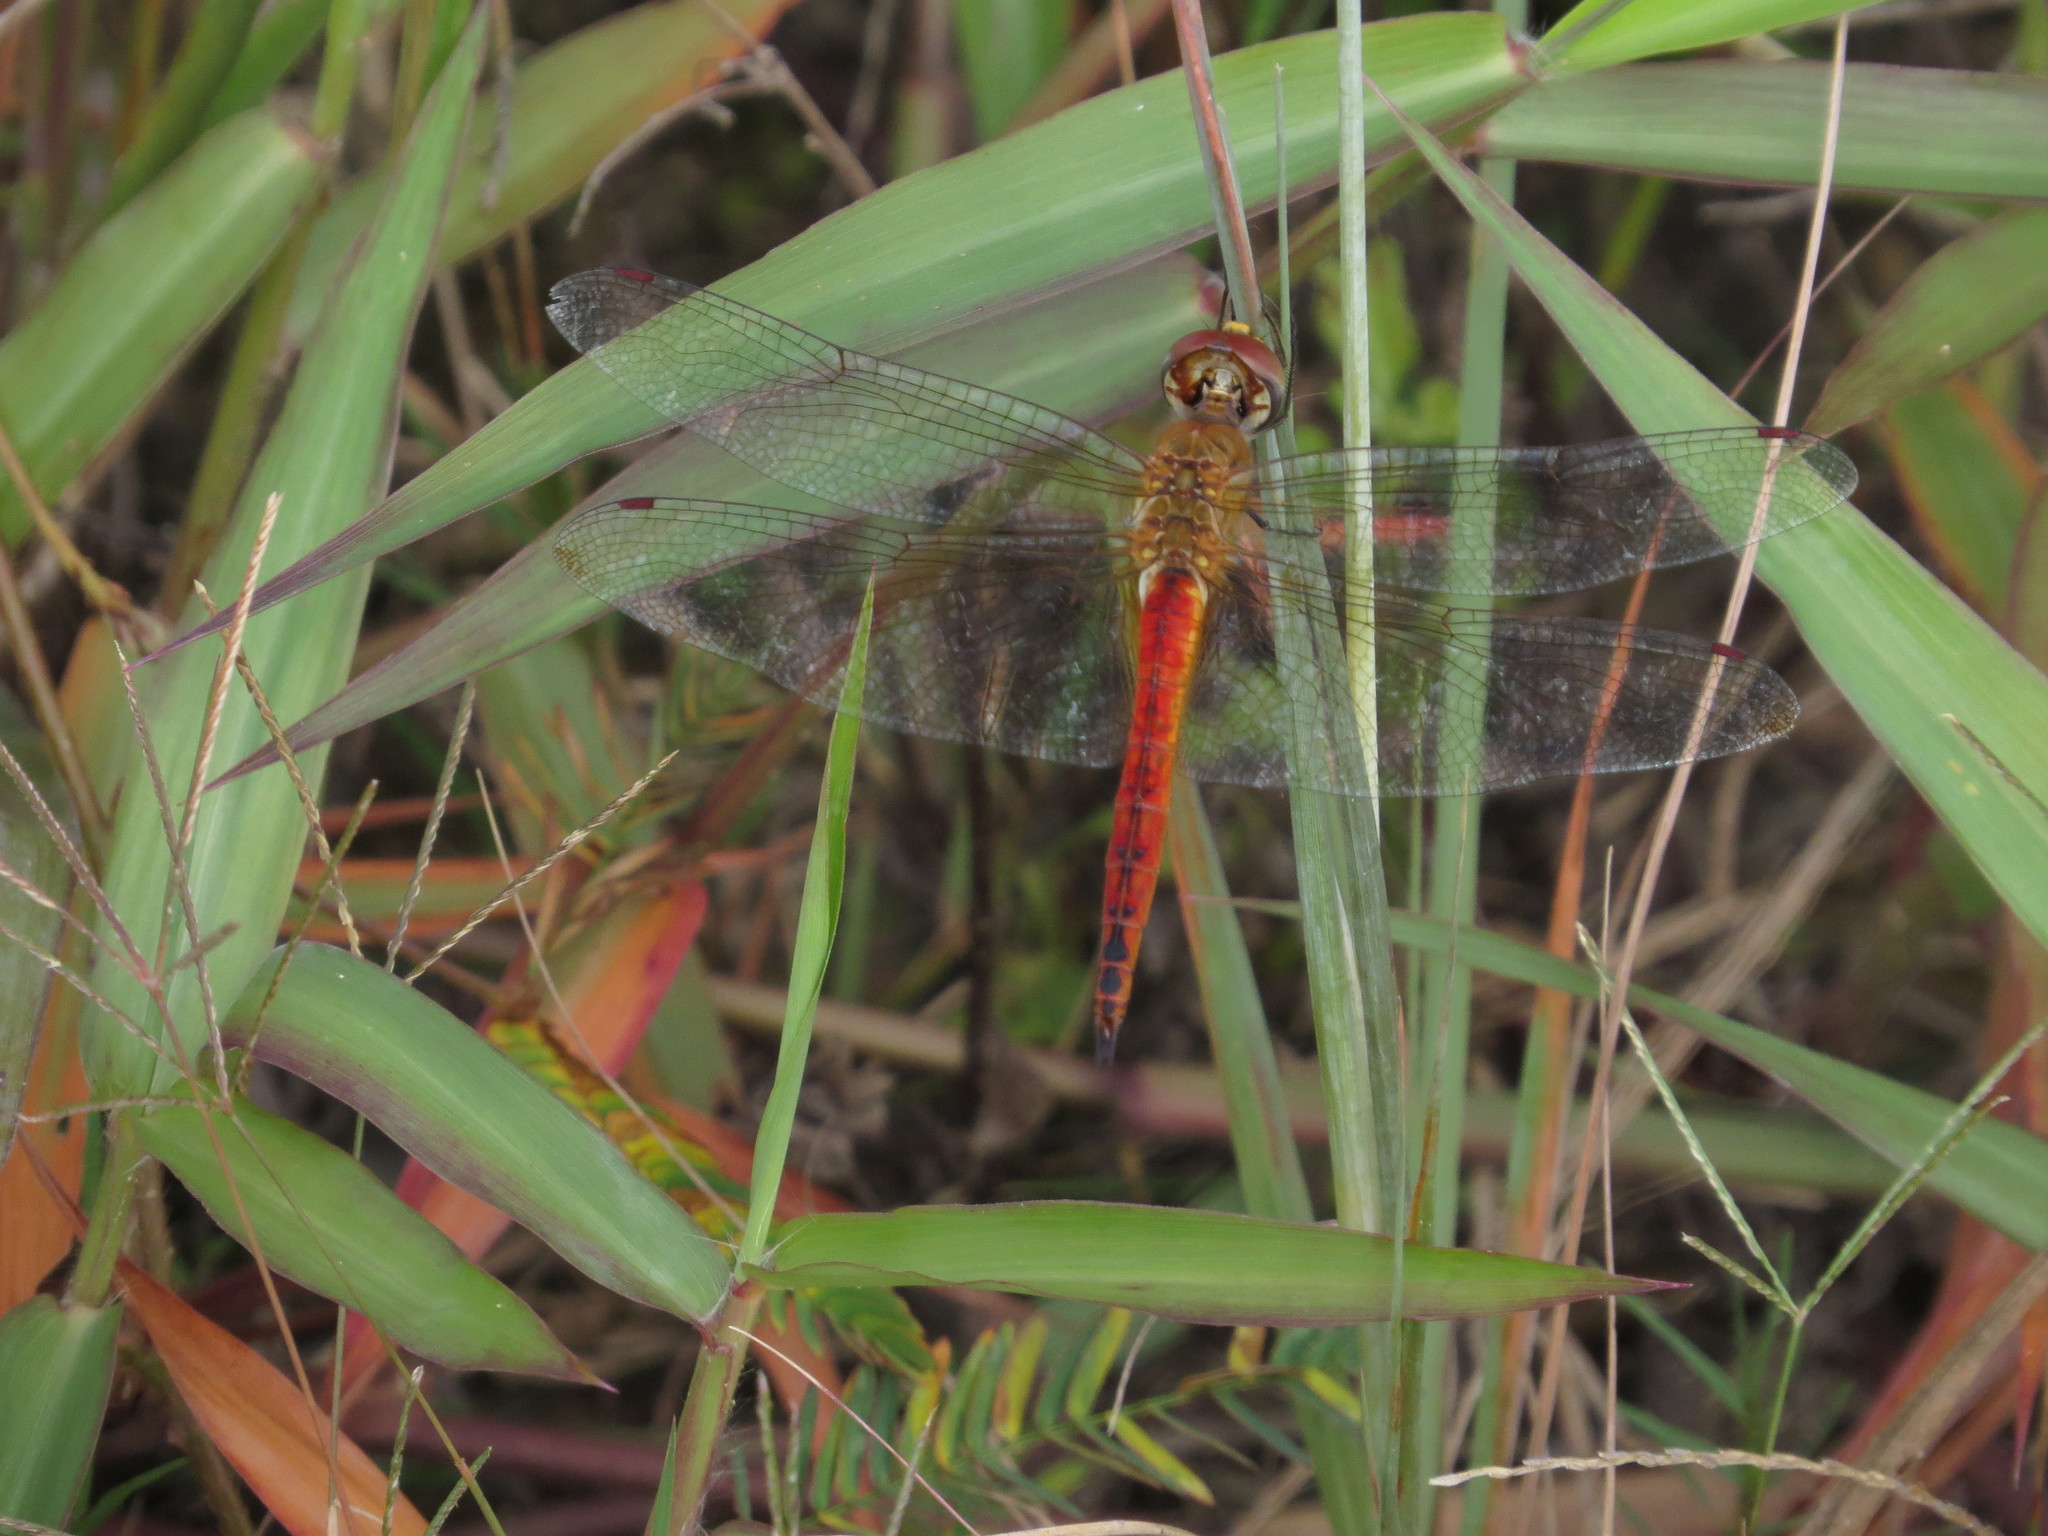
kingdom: Animalia
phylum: Arthropoda
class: Insecta
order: Odonata
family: Libellulidae
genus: Pantala
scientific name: Pantala flavescens
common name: Wandering glider
